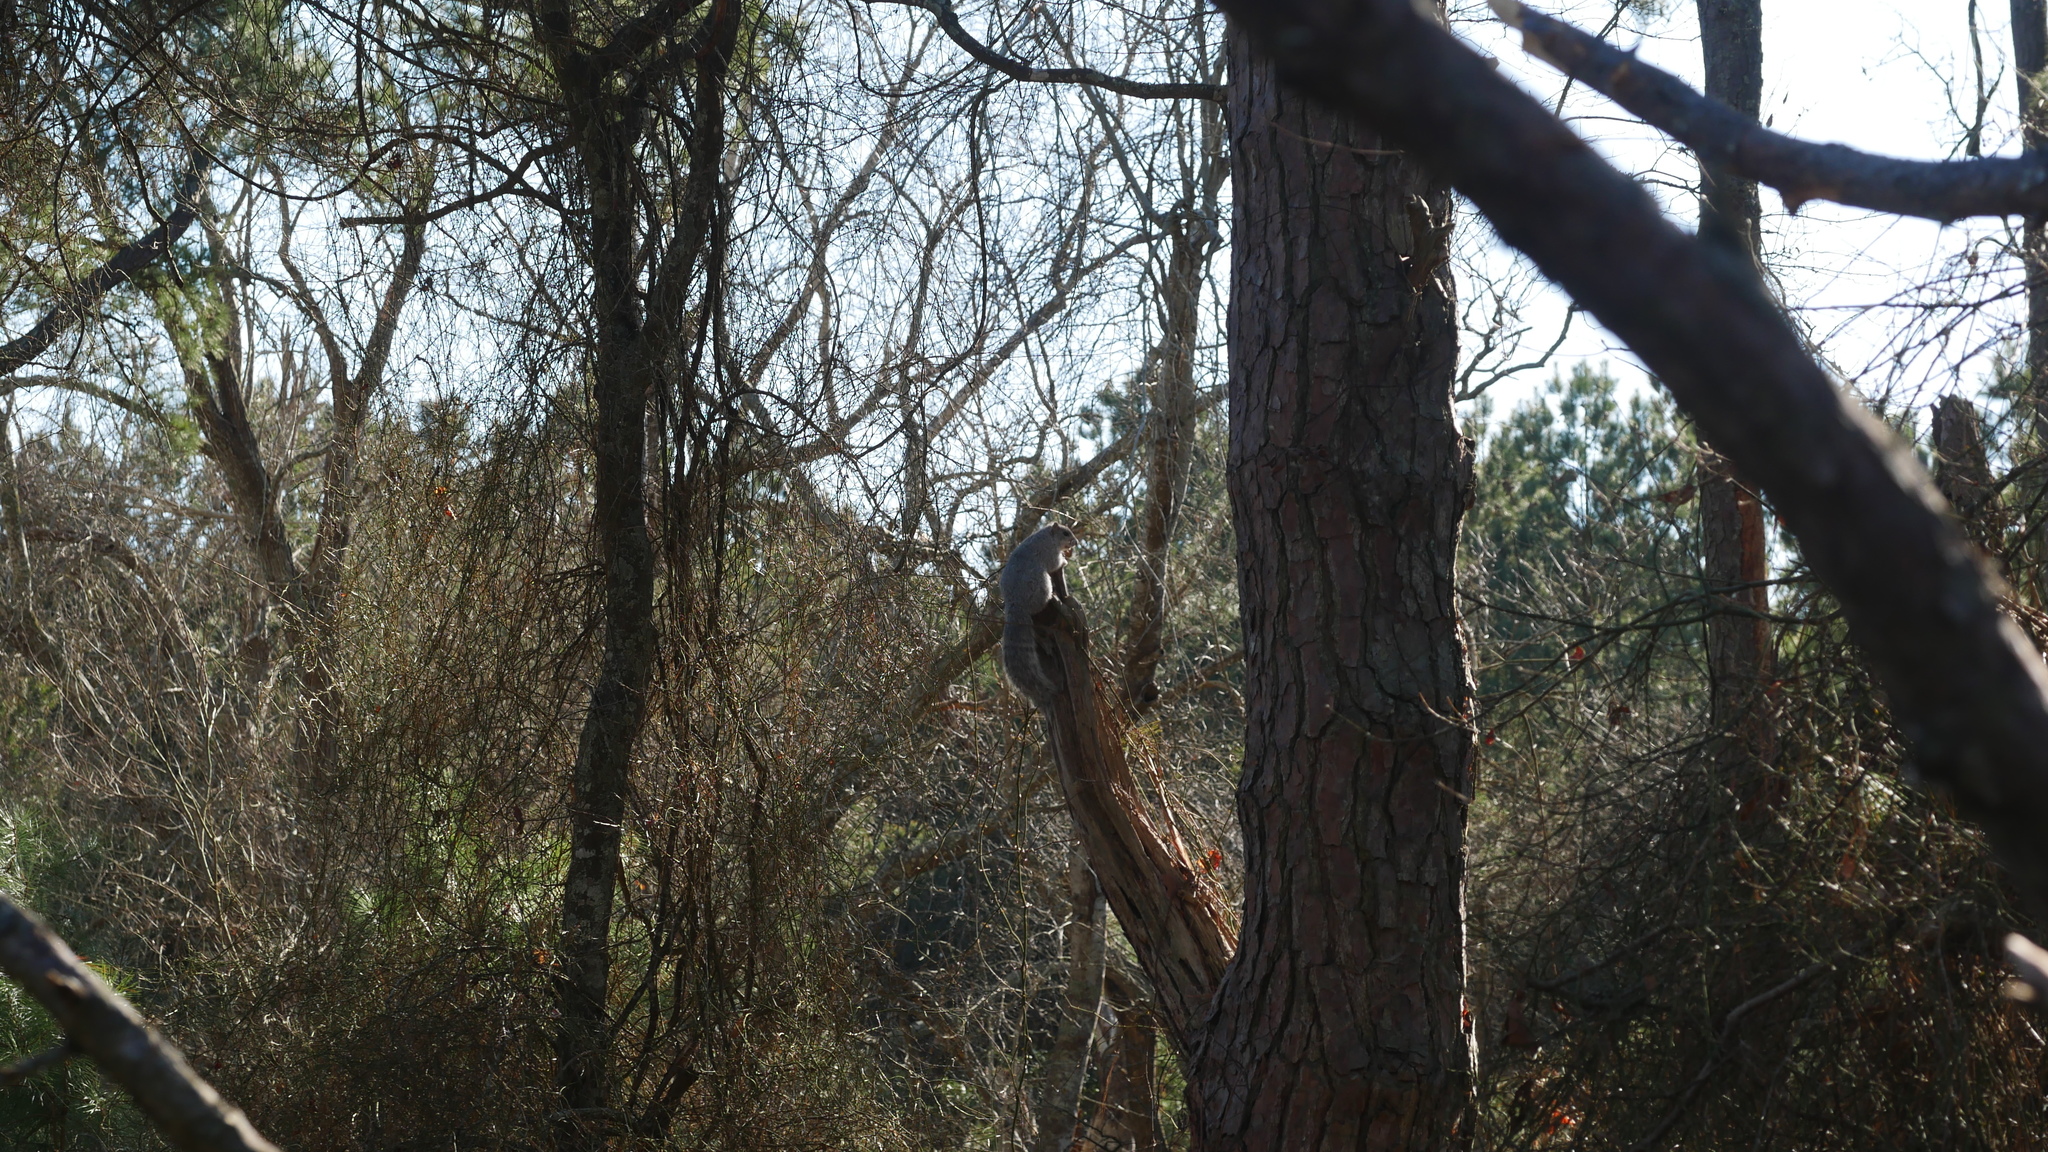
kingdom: Animalia
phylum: Chordata
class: Mammalia
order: Rodentia
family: Sciuridae
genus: Sciurus
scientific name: Sciurus niger
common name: Fox squirrel
